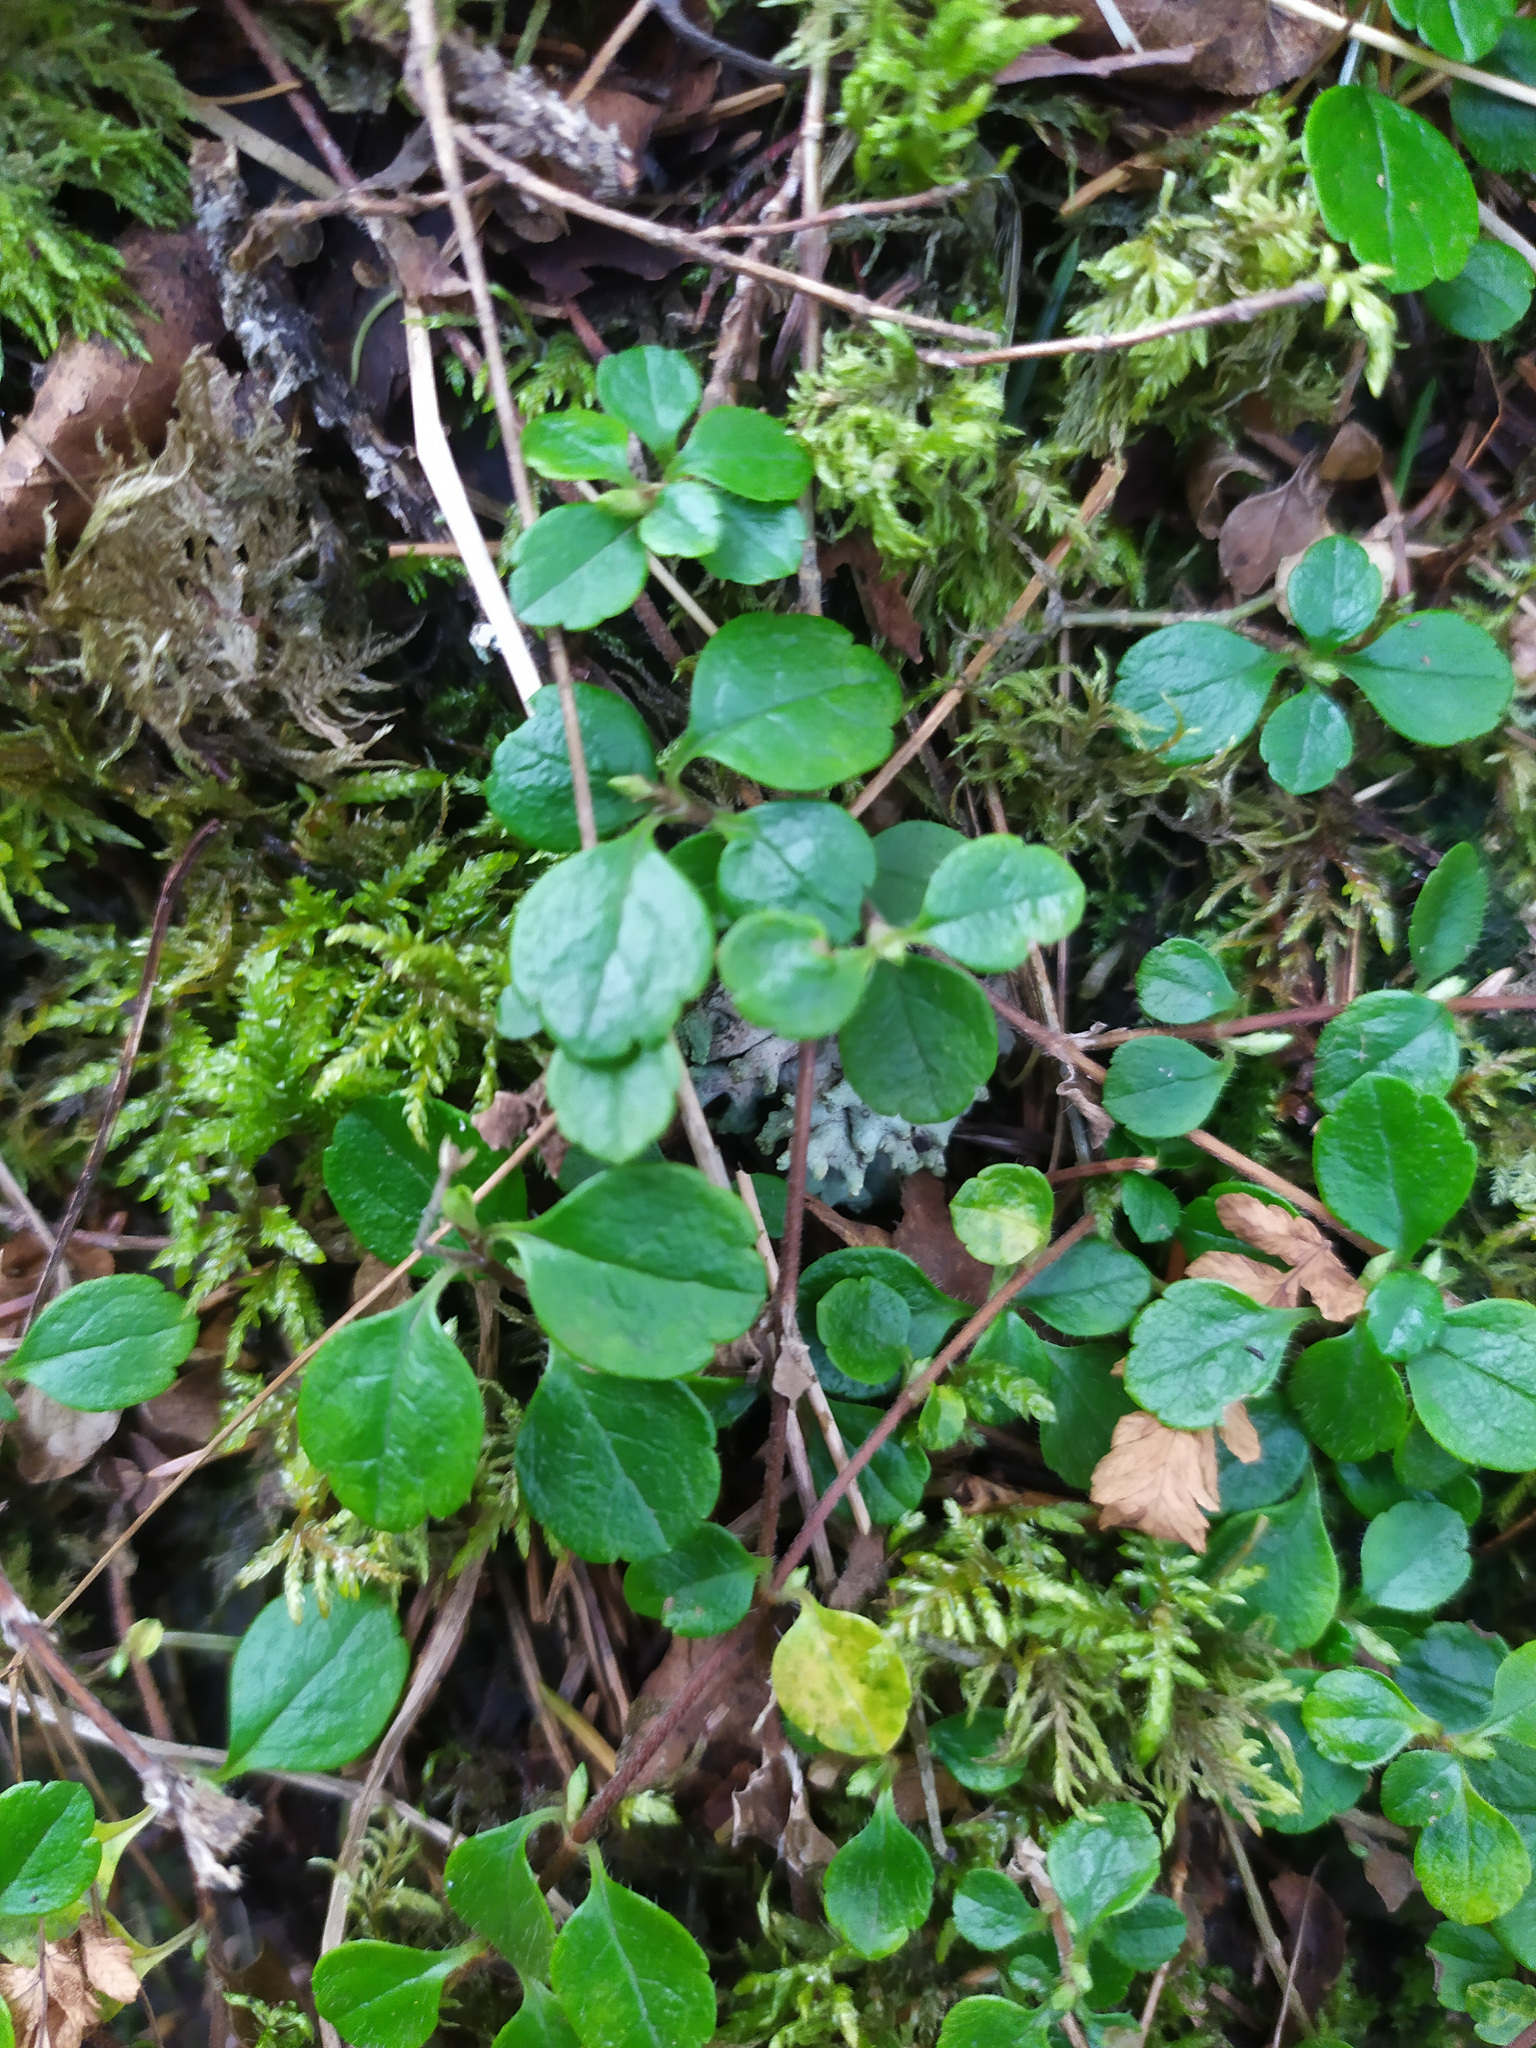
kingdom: Plantae
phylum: Tracheophyta
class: Magnoliopsida
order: Dipsacales
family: Caprifoliaceae
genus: Linnaea
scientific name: Linnaea borealis
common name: Twinflower
